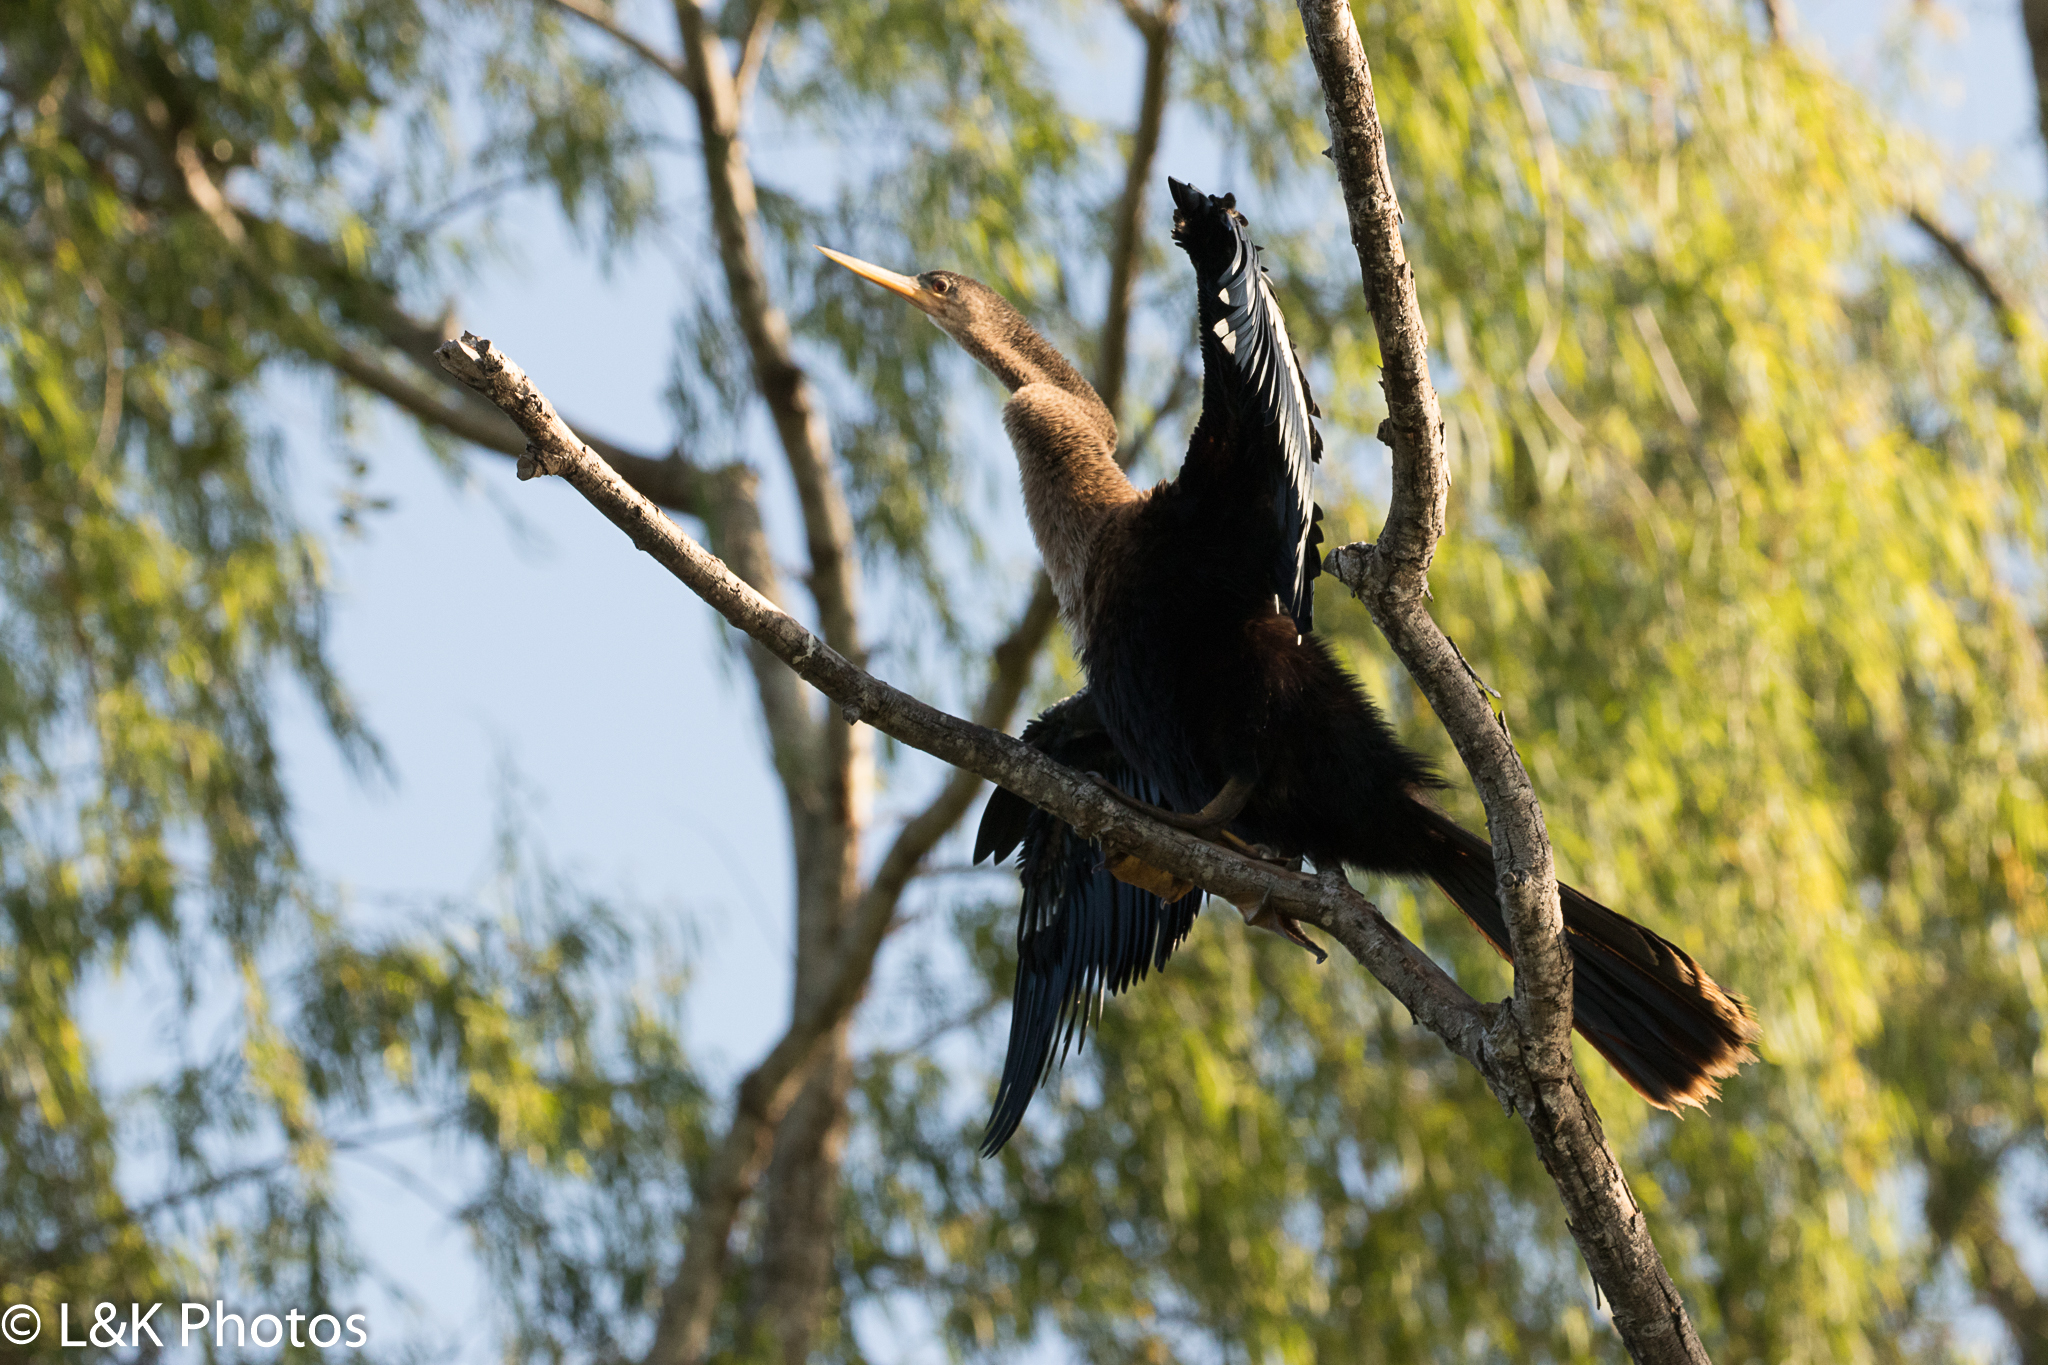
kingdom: Animalia
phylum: Chordata
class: Aves
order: Suliformes
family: Anhingidae
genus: Anhinga
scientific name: Anhinga anhinga
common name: Anhinga
